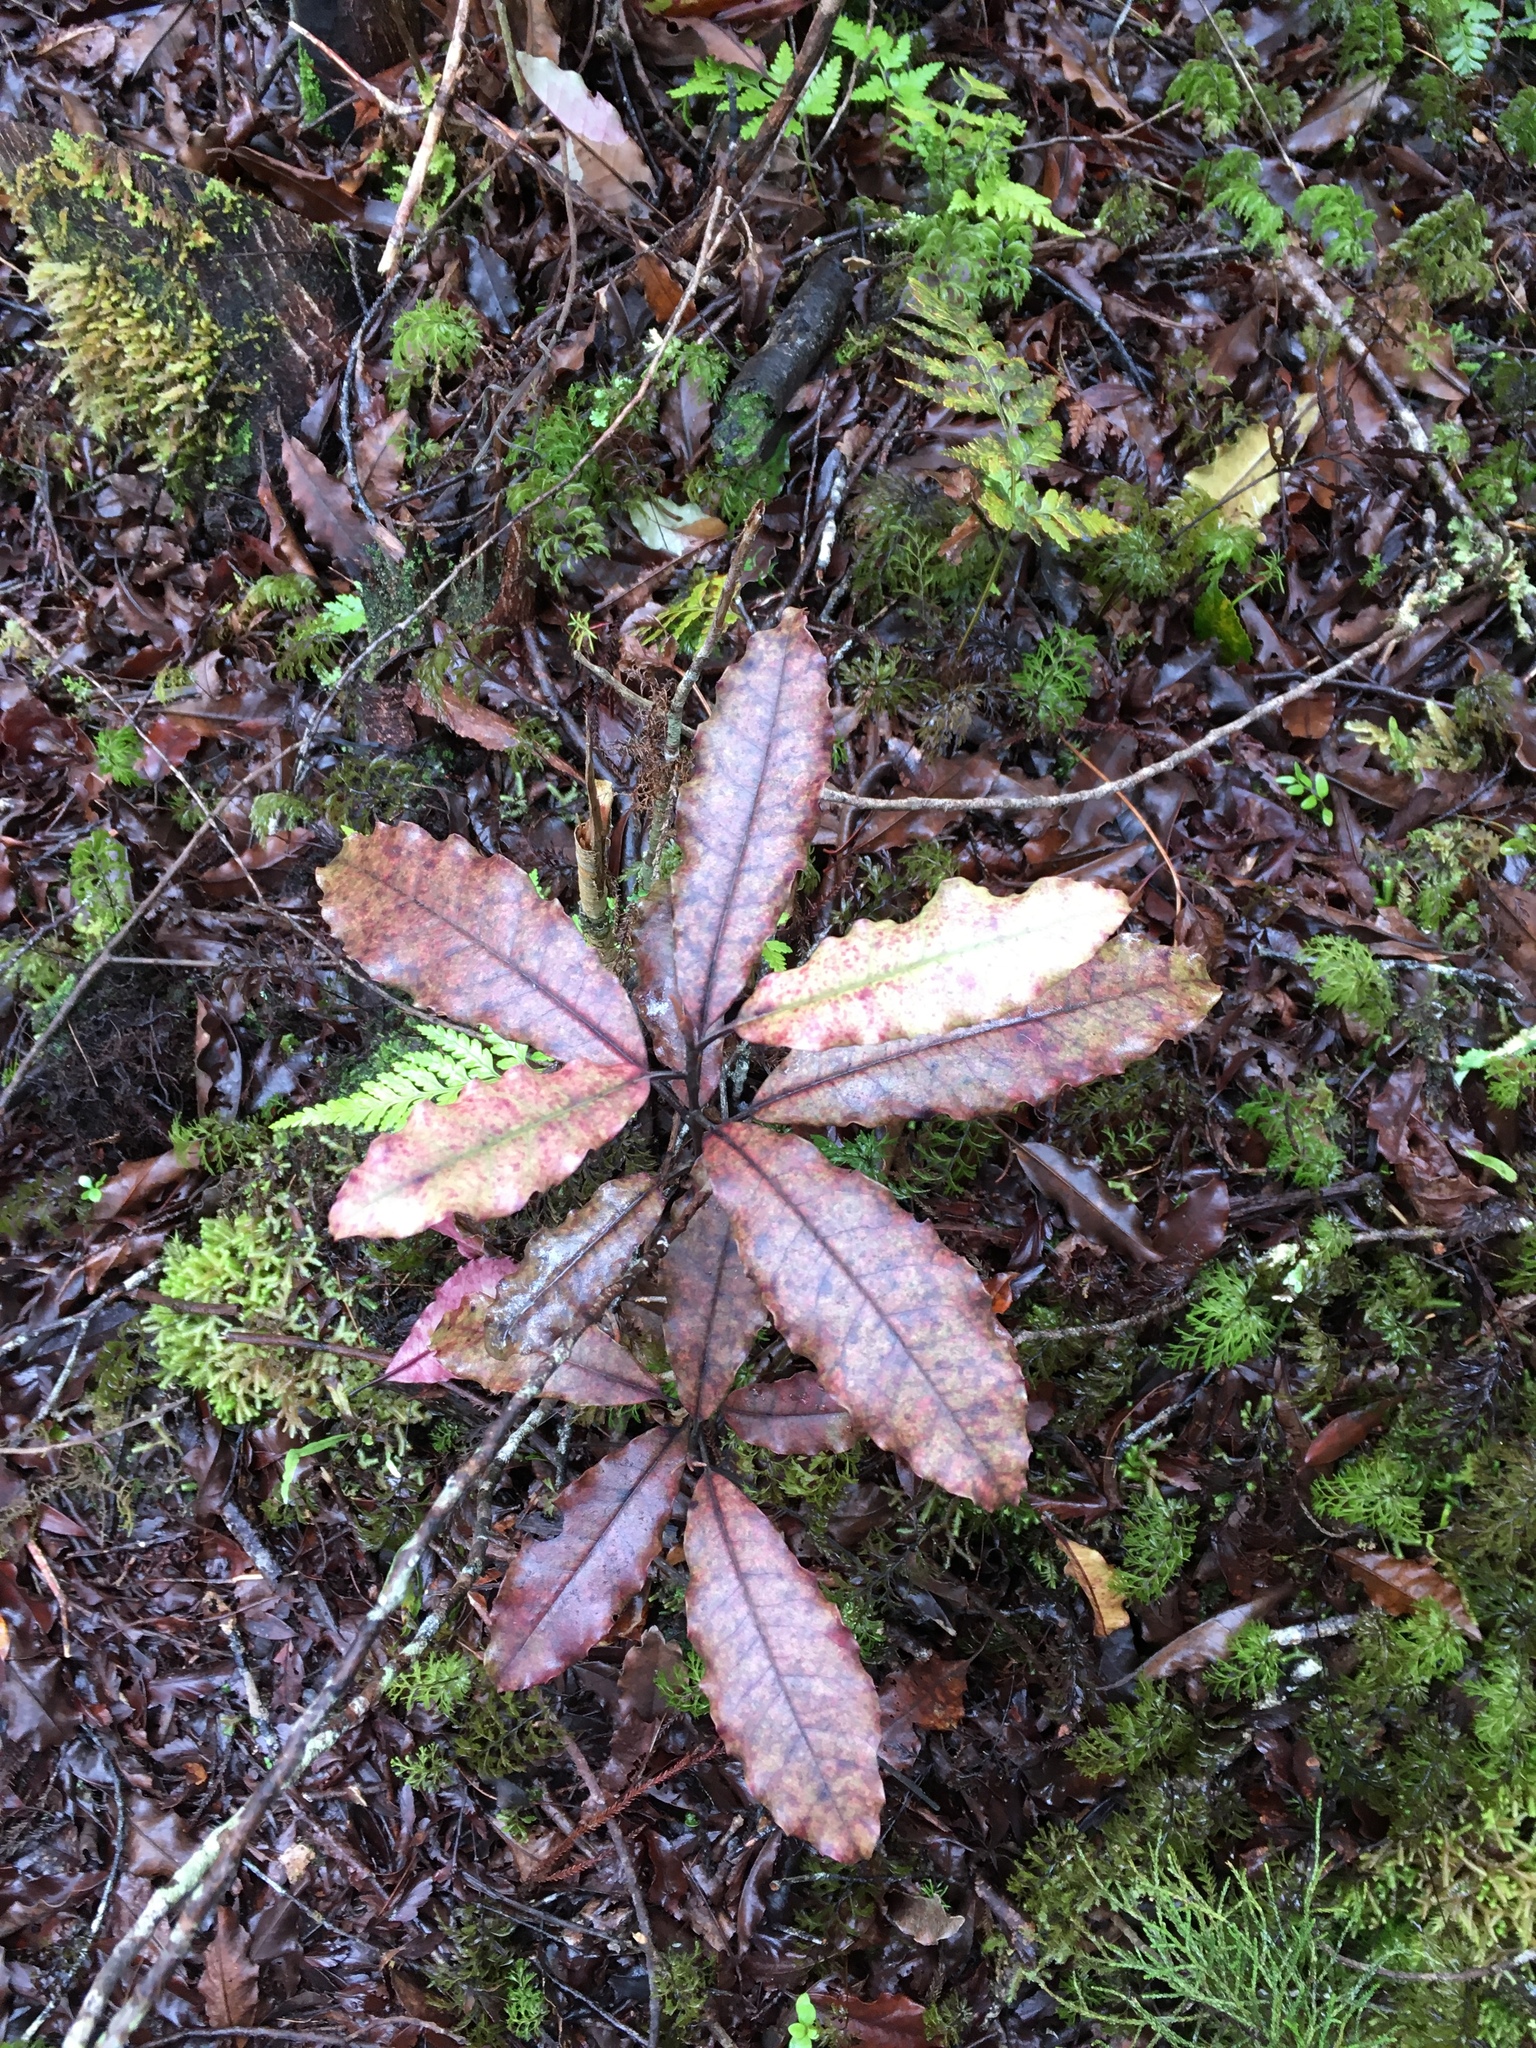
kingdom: Plantae
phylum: Tracheophyta
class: Magnoliopsida
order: Paracryphiales
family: Paracryphiaceae
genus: Quintinia
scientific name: Quintinia serrata
